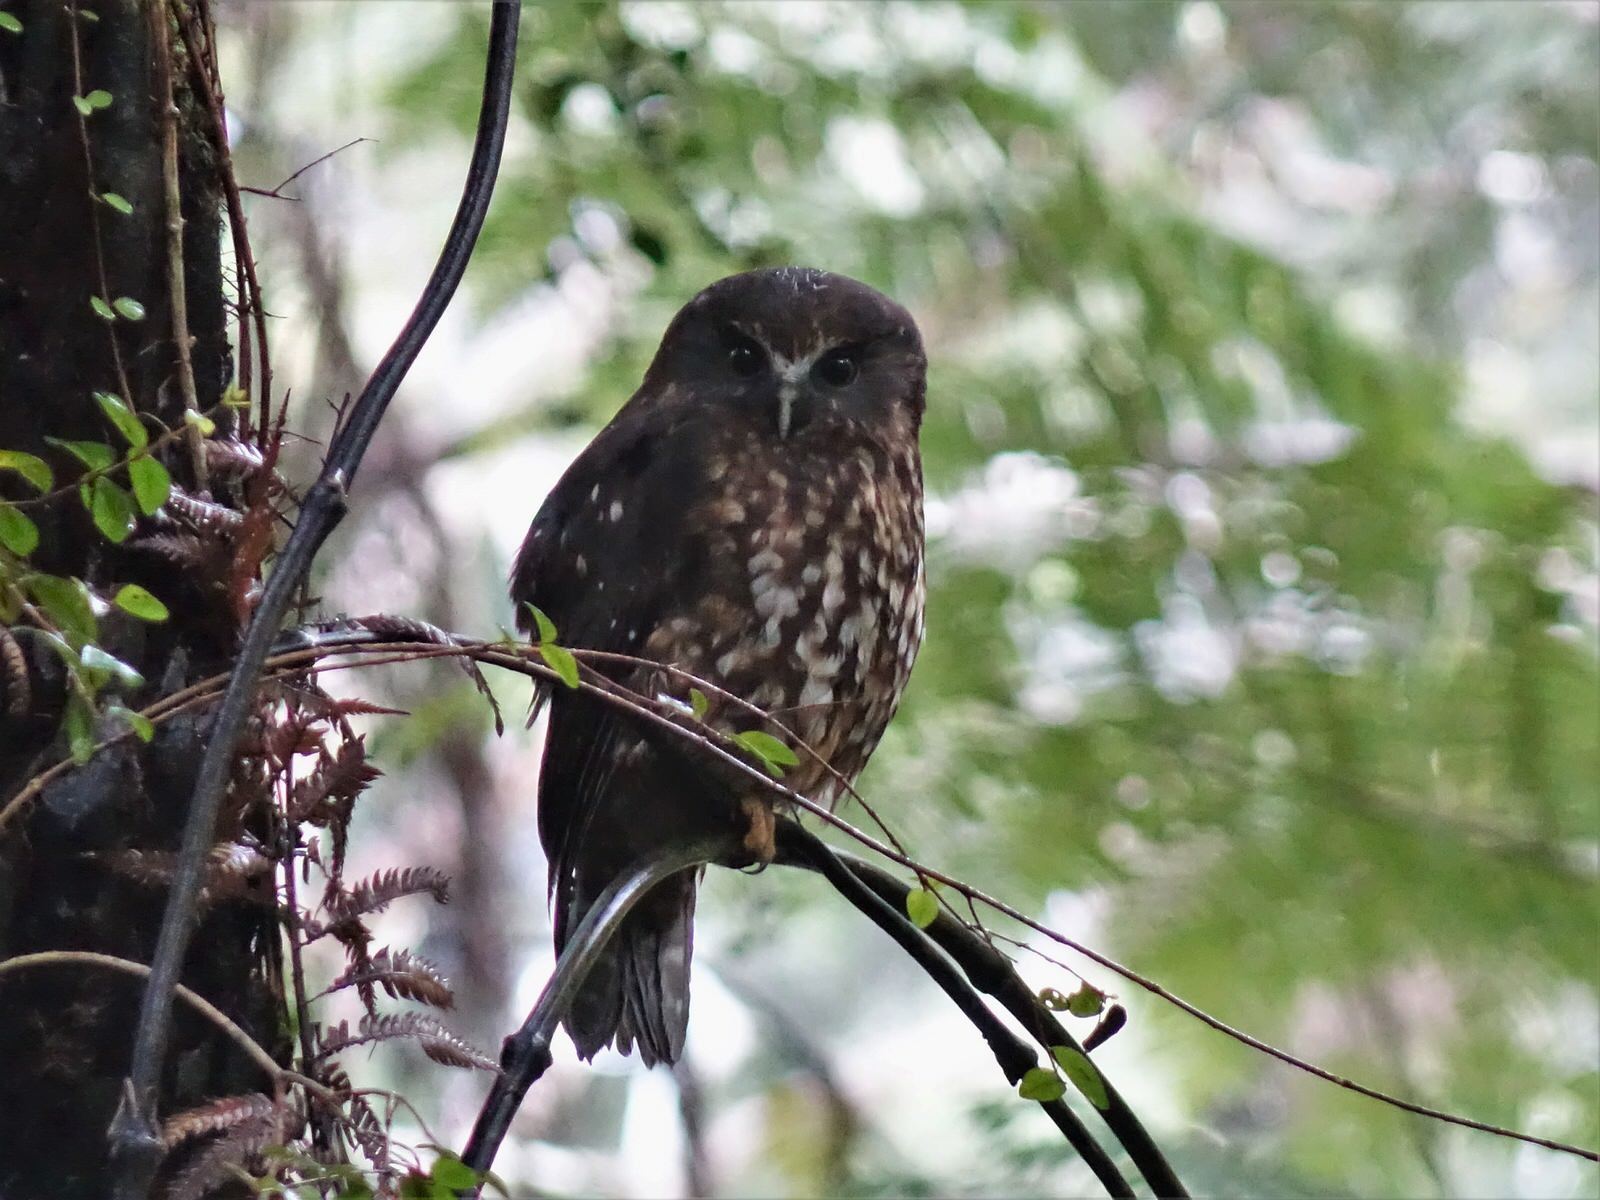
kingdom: Animalia
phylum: Chordata
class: Aves
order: Strigiformes
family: Strigidae
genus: Ninox
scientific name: Ninox novaeseelandiae
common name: Morepork
